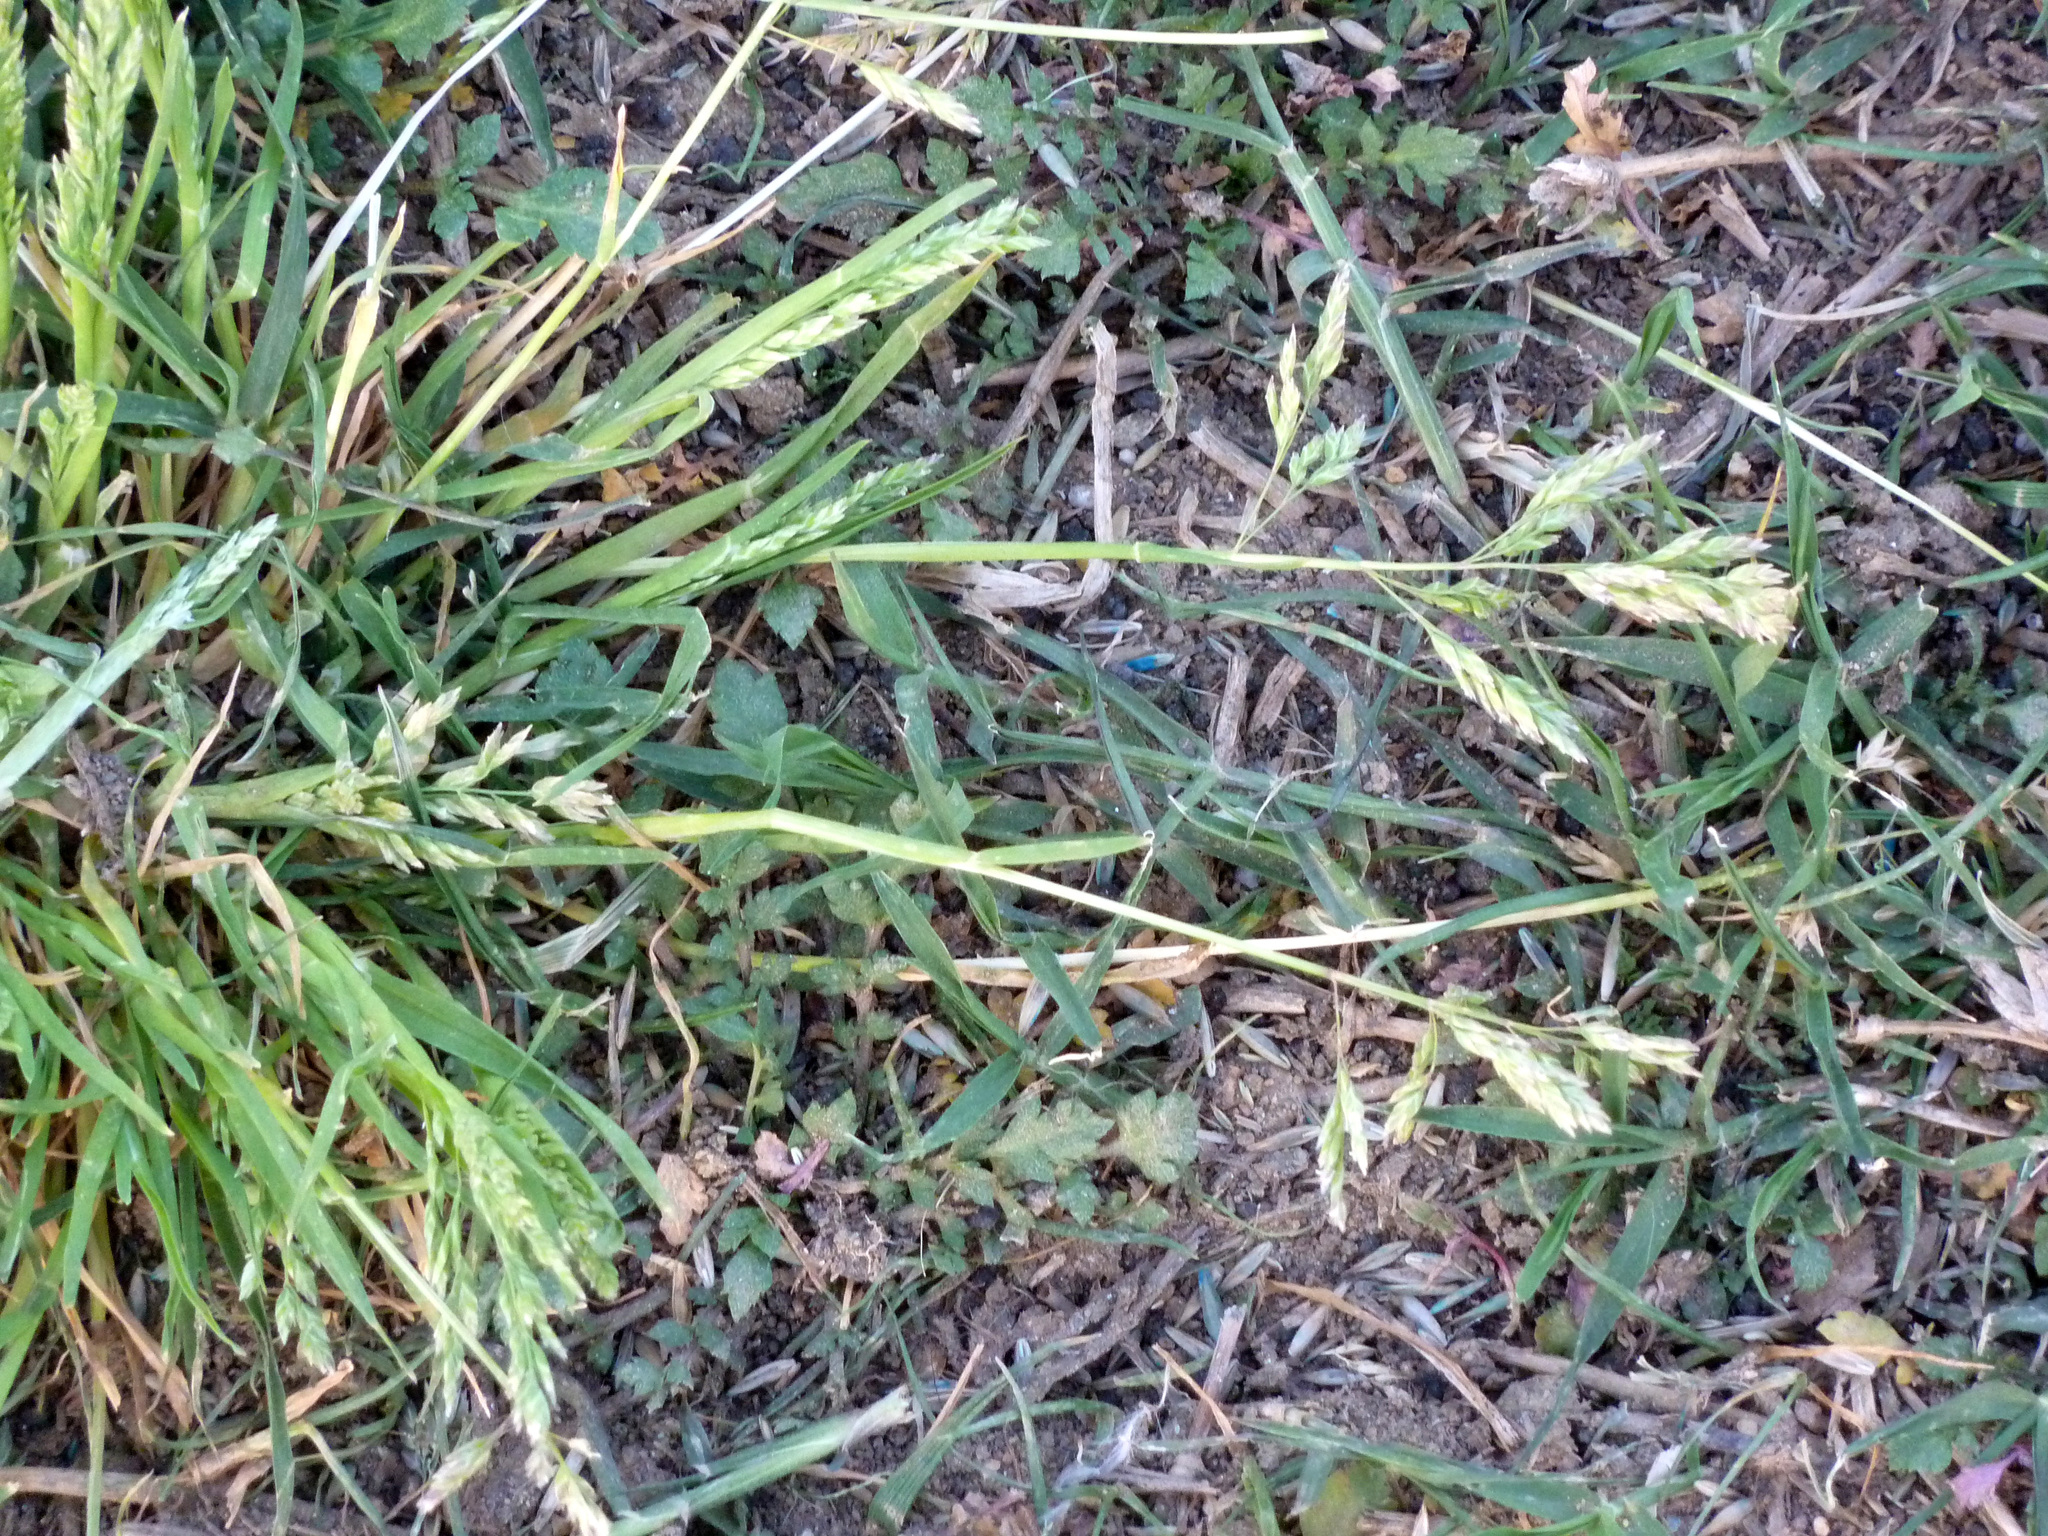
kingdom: Plantae
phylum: Tracheophyta
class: Liliopsida
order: Poales
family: Poaceae
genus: Poa
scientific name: Poa annua
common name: Annual bluegrass
